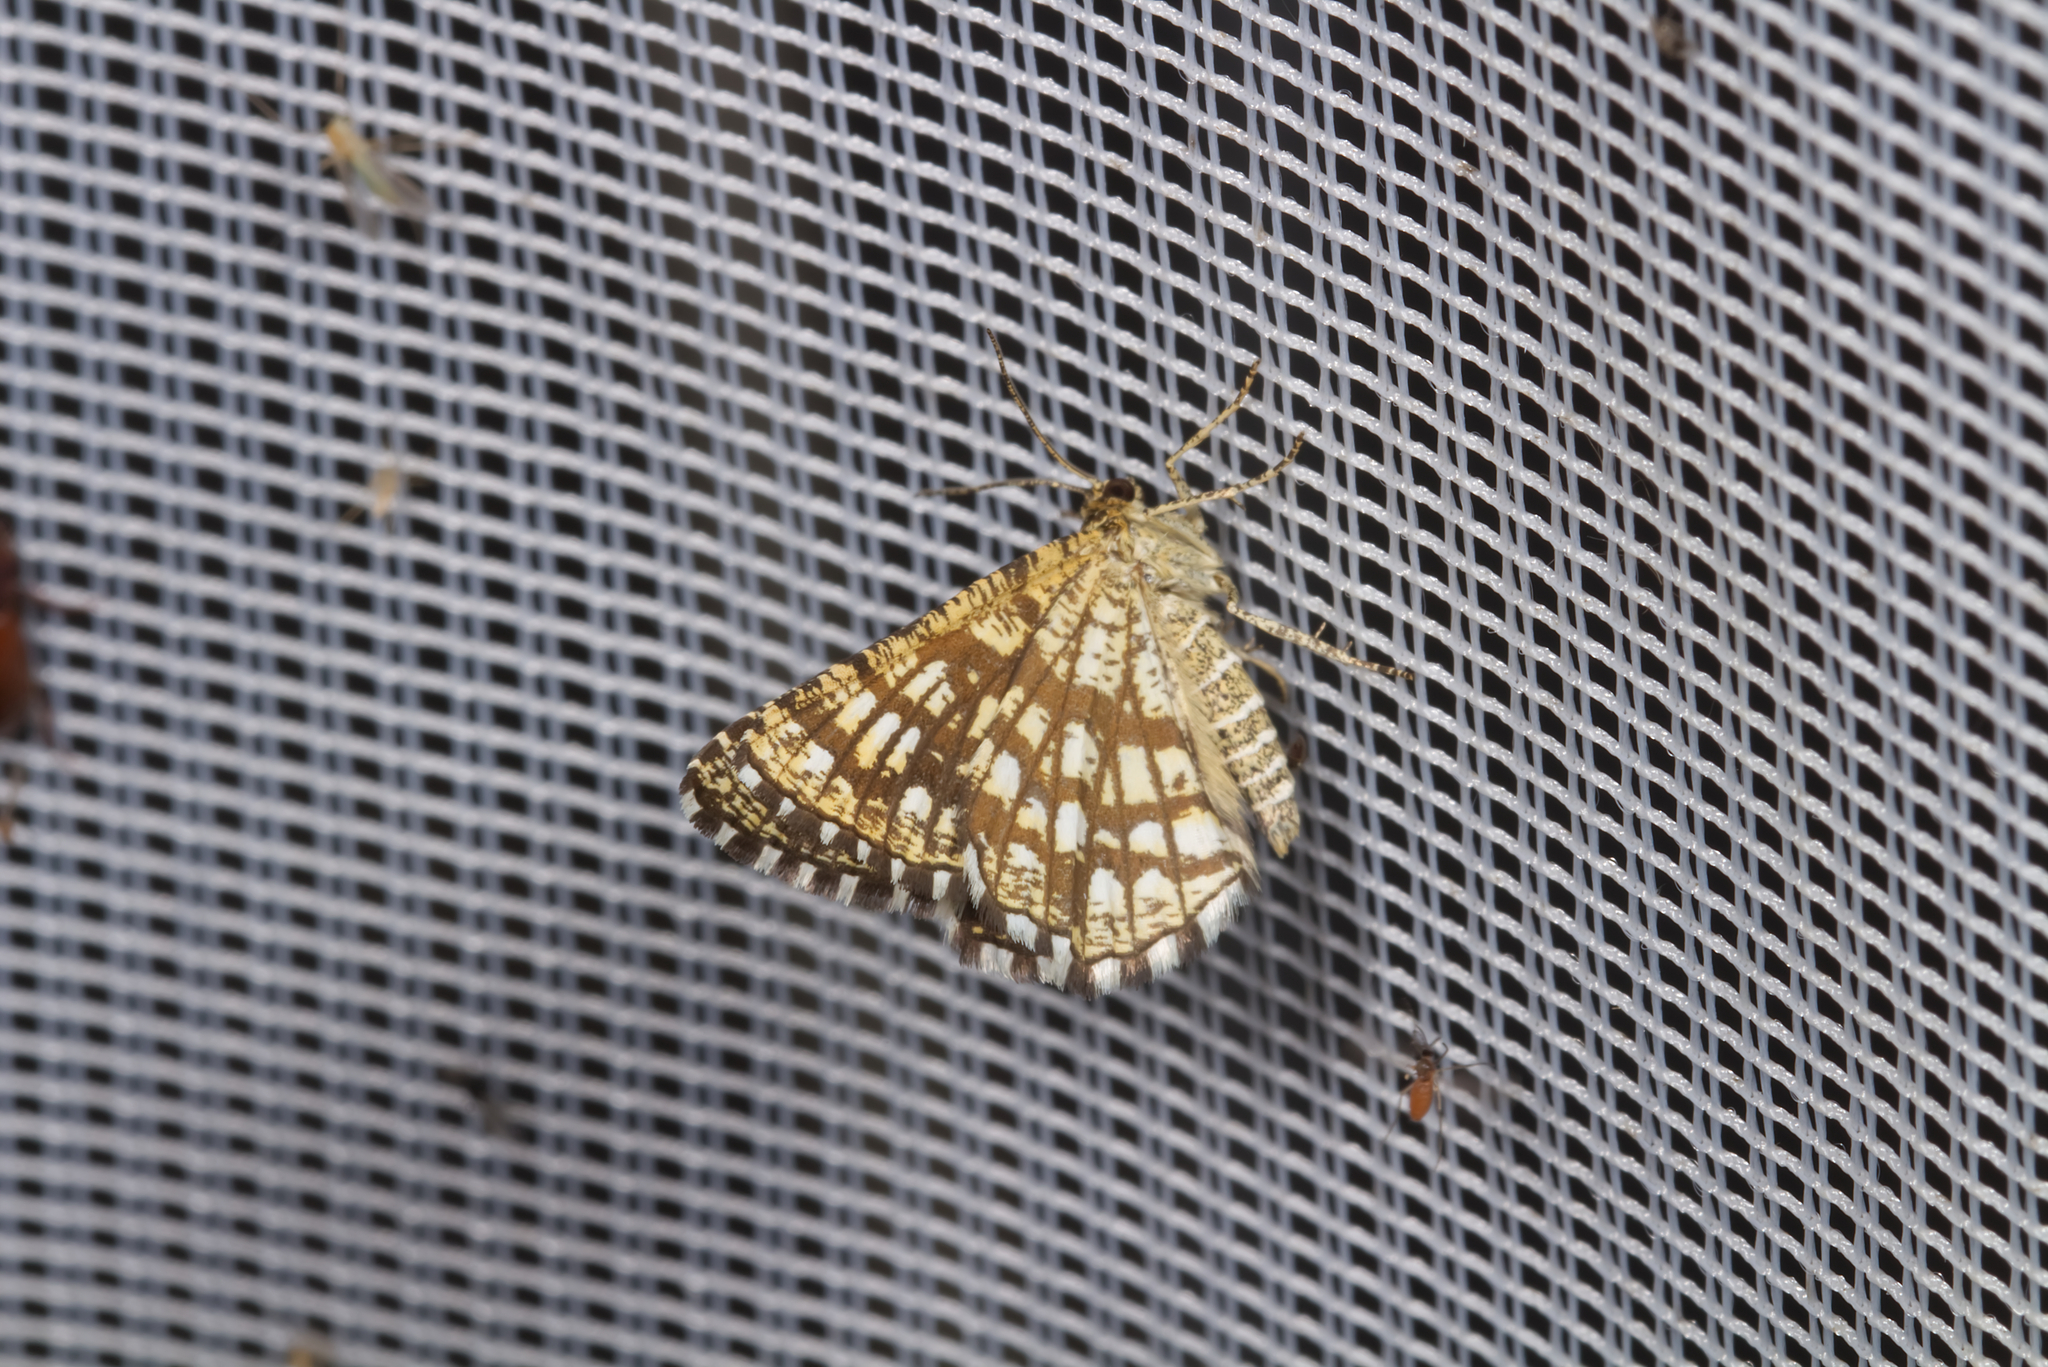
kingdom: Animalia
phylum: Arthropoda
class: Insecta
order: Lepidoptera
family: Geometridae
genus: Chiasmia
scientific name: Chiasmia clathrata
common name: Latticed heath
